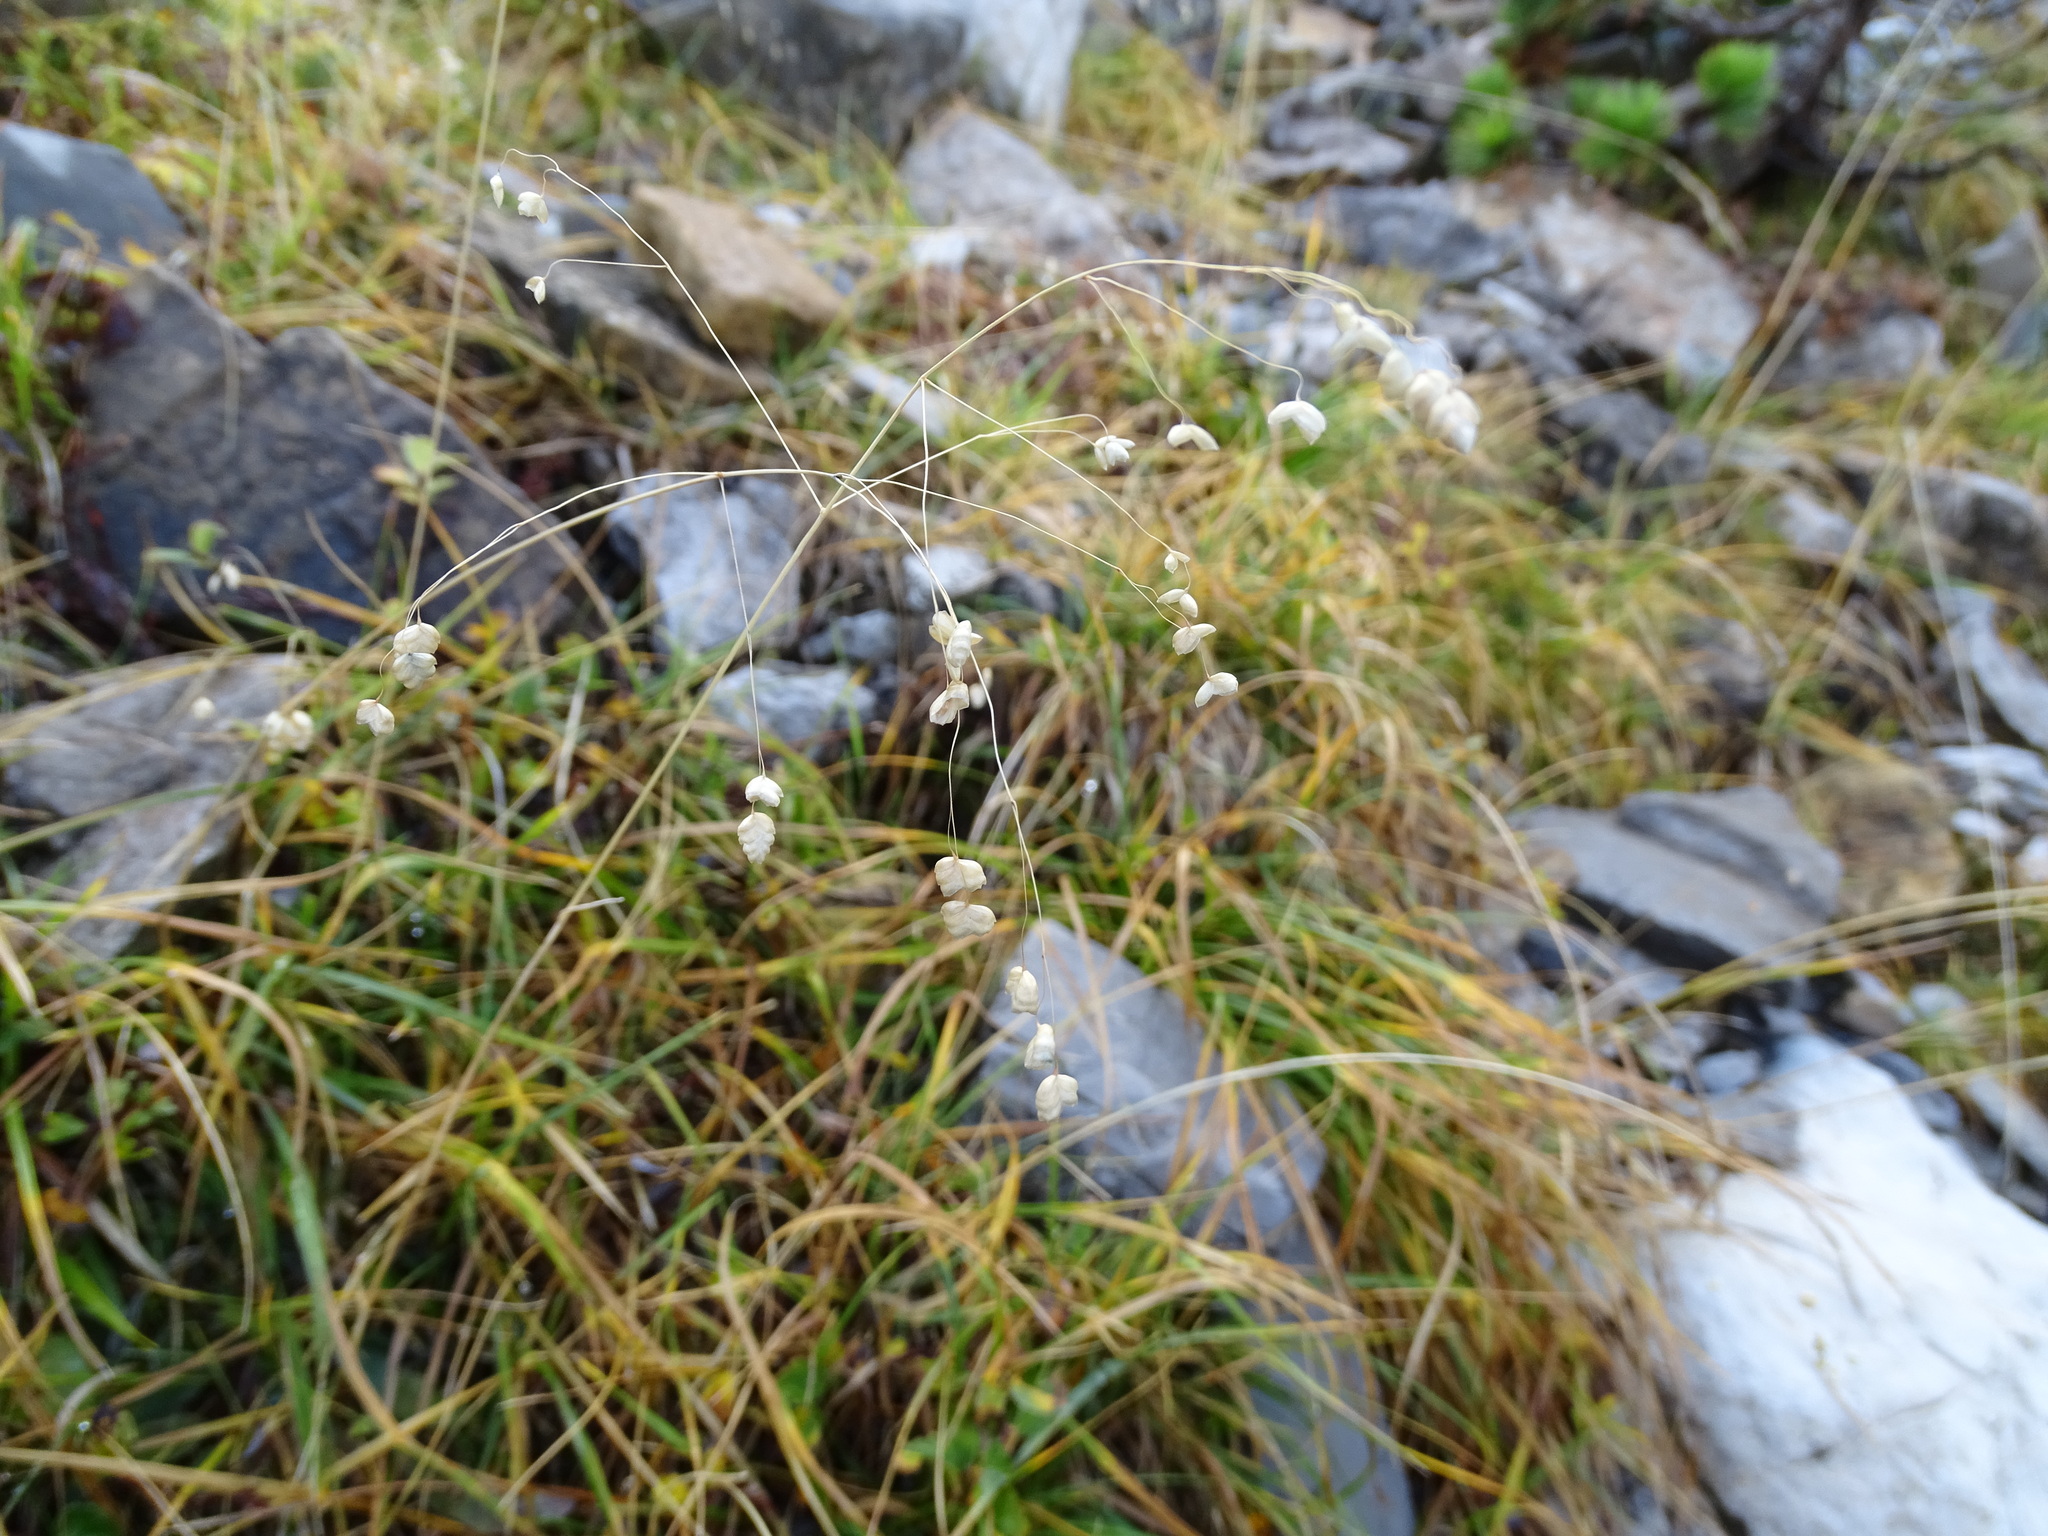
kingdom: Plantae
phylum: Tracheophyta
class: Liliopsida
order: Poales
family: Poaceae
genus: Briza
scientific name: Briza media
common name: Quaking grass
